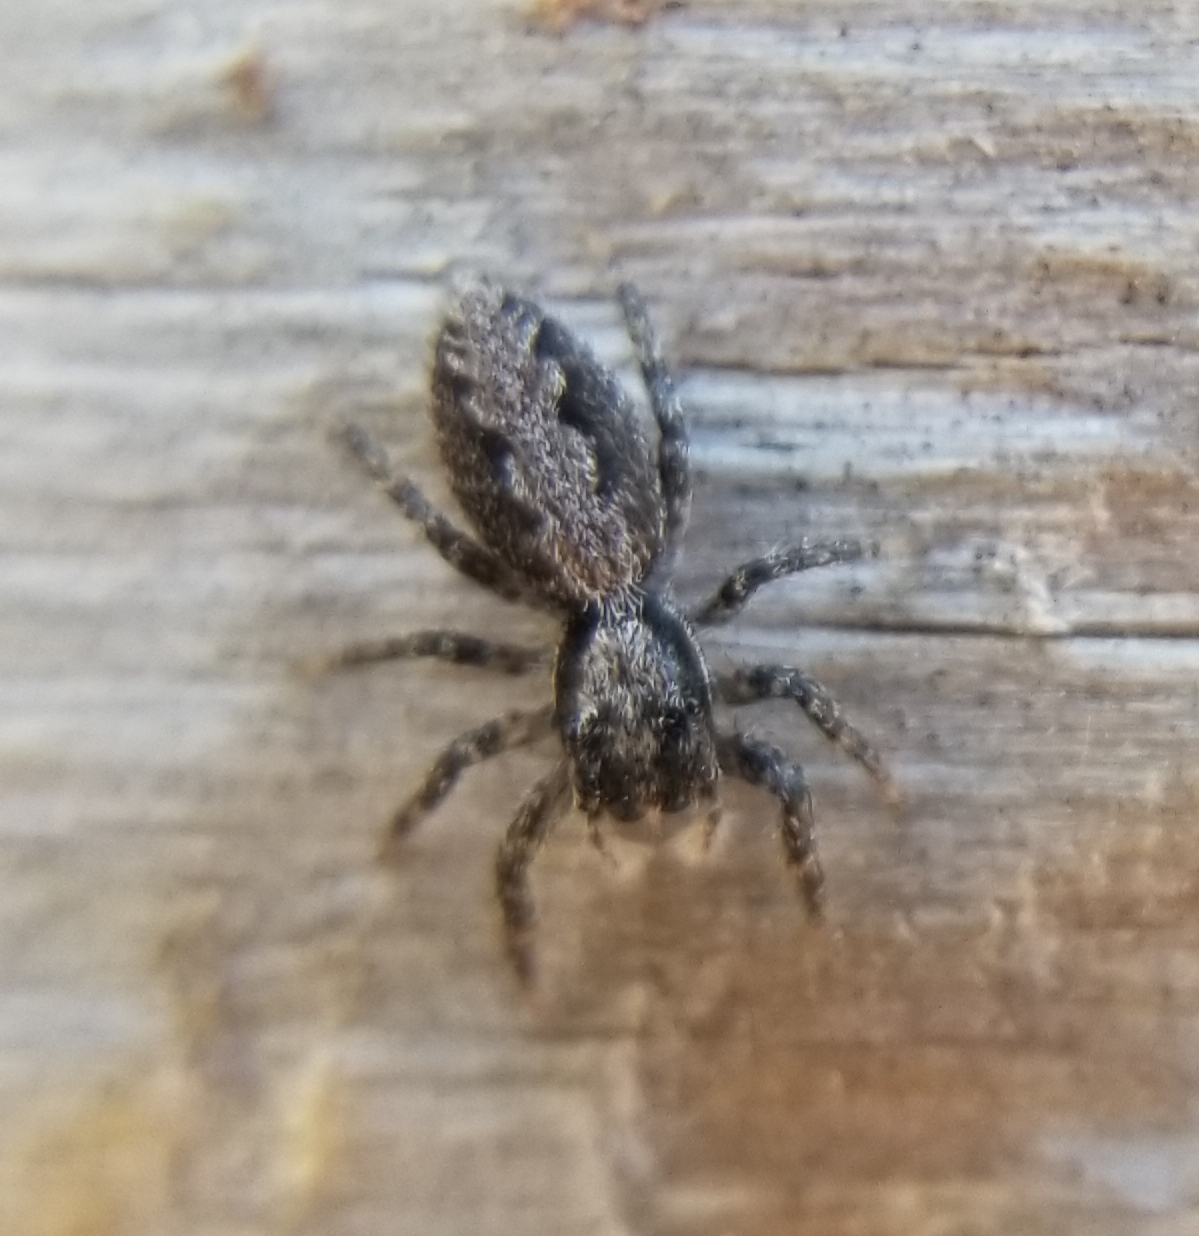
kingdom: Animalia
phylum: Arthropoda
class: Arachnida
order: Araneae
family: Salticidae
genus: Platycryptus
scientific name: Platycryptus californicus
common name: Jumping spiders
